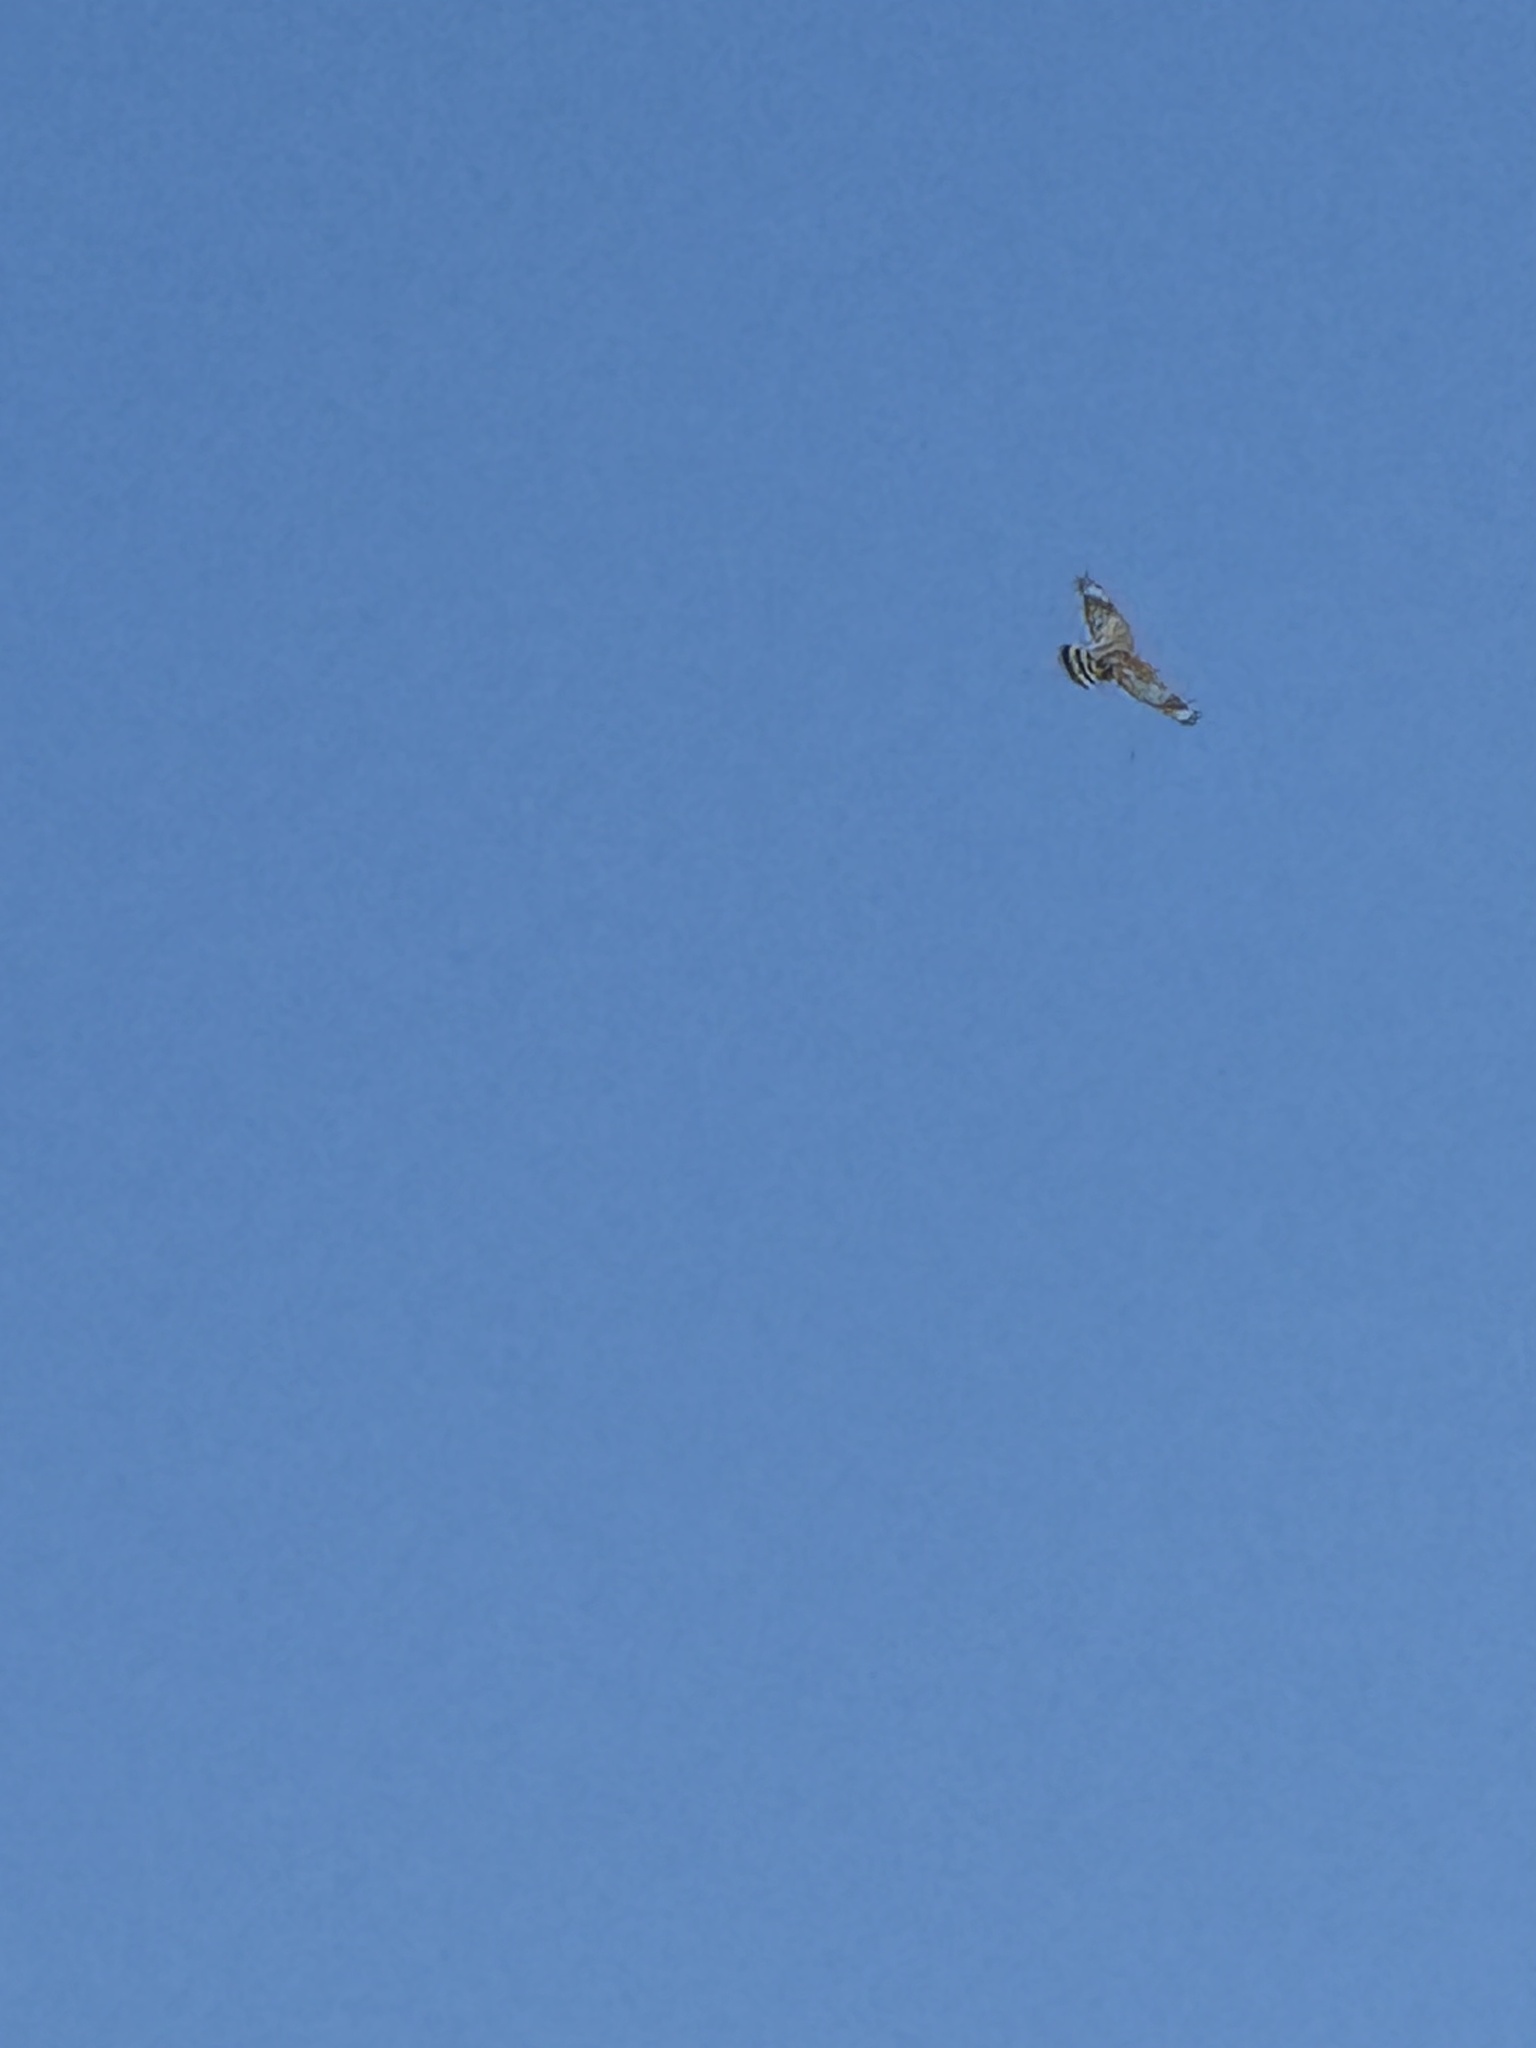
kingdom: Animalia
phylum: Chordata
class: Aves
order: Accipitriformes
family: Accipitridae
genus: Buteo
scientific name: Buteo lineatus
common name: Red-shouldered hawk
